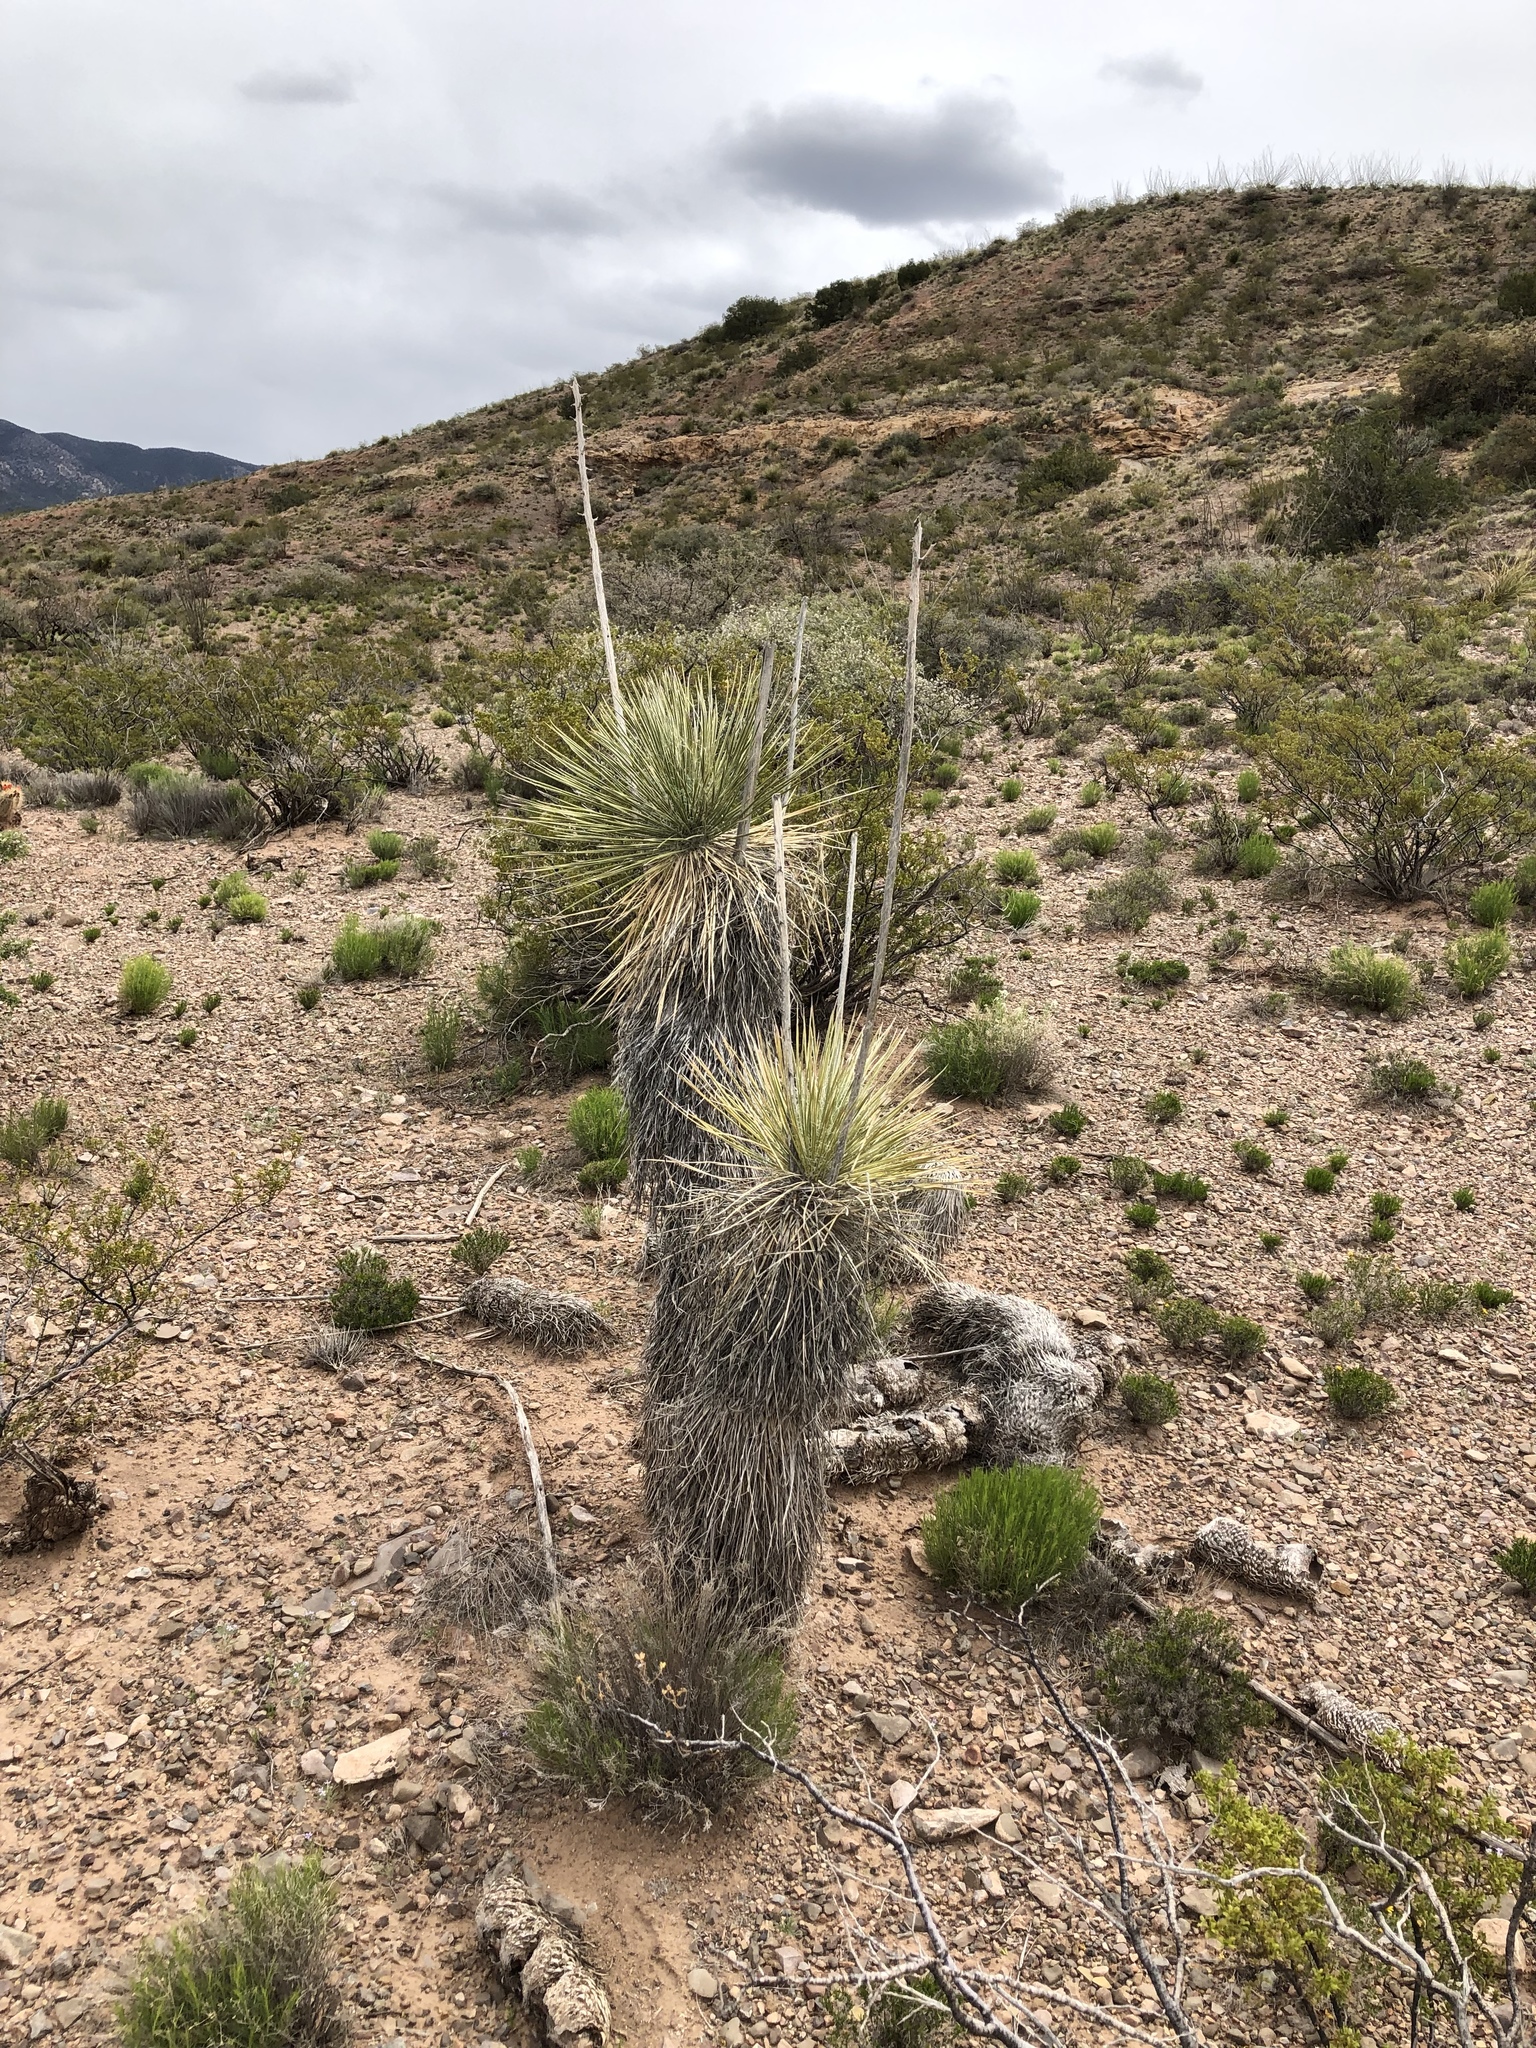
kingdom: Plantae
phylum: Tracheophyta
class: Liliopsida
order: Asparagales
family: Asparagaceae
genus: Yucca
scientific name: Yucca elata
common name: Palmella
